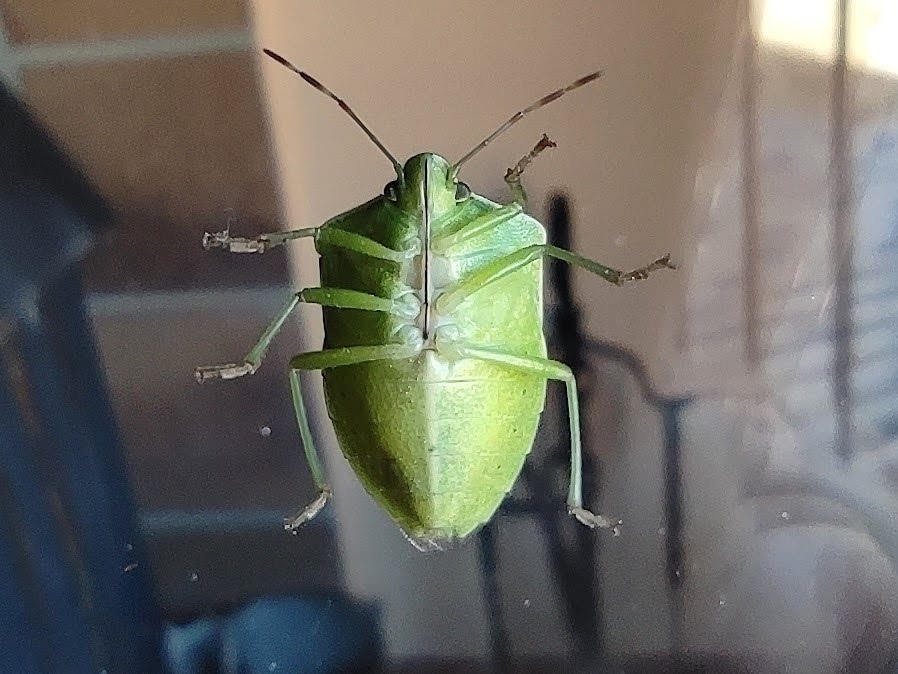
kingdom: Animalia
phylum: Arthropoda
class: Insecta
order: Hemiptera
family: Pentatomidae
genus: Nezara
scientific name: Nezara viridula
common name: Southern green stink bug
